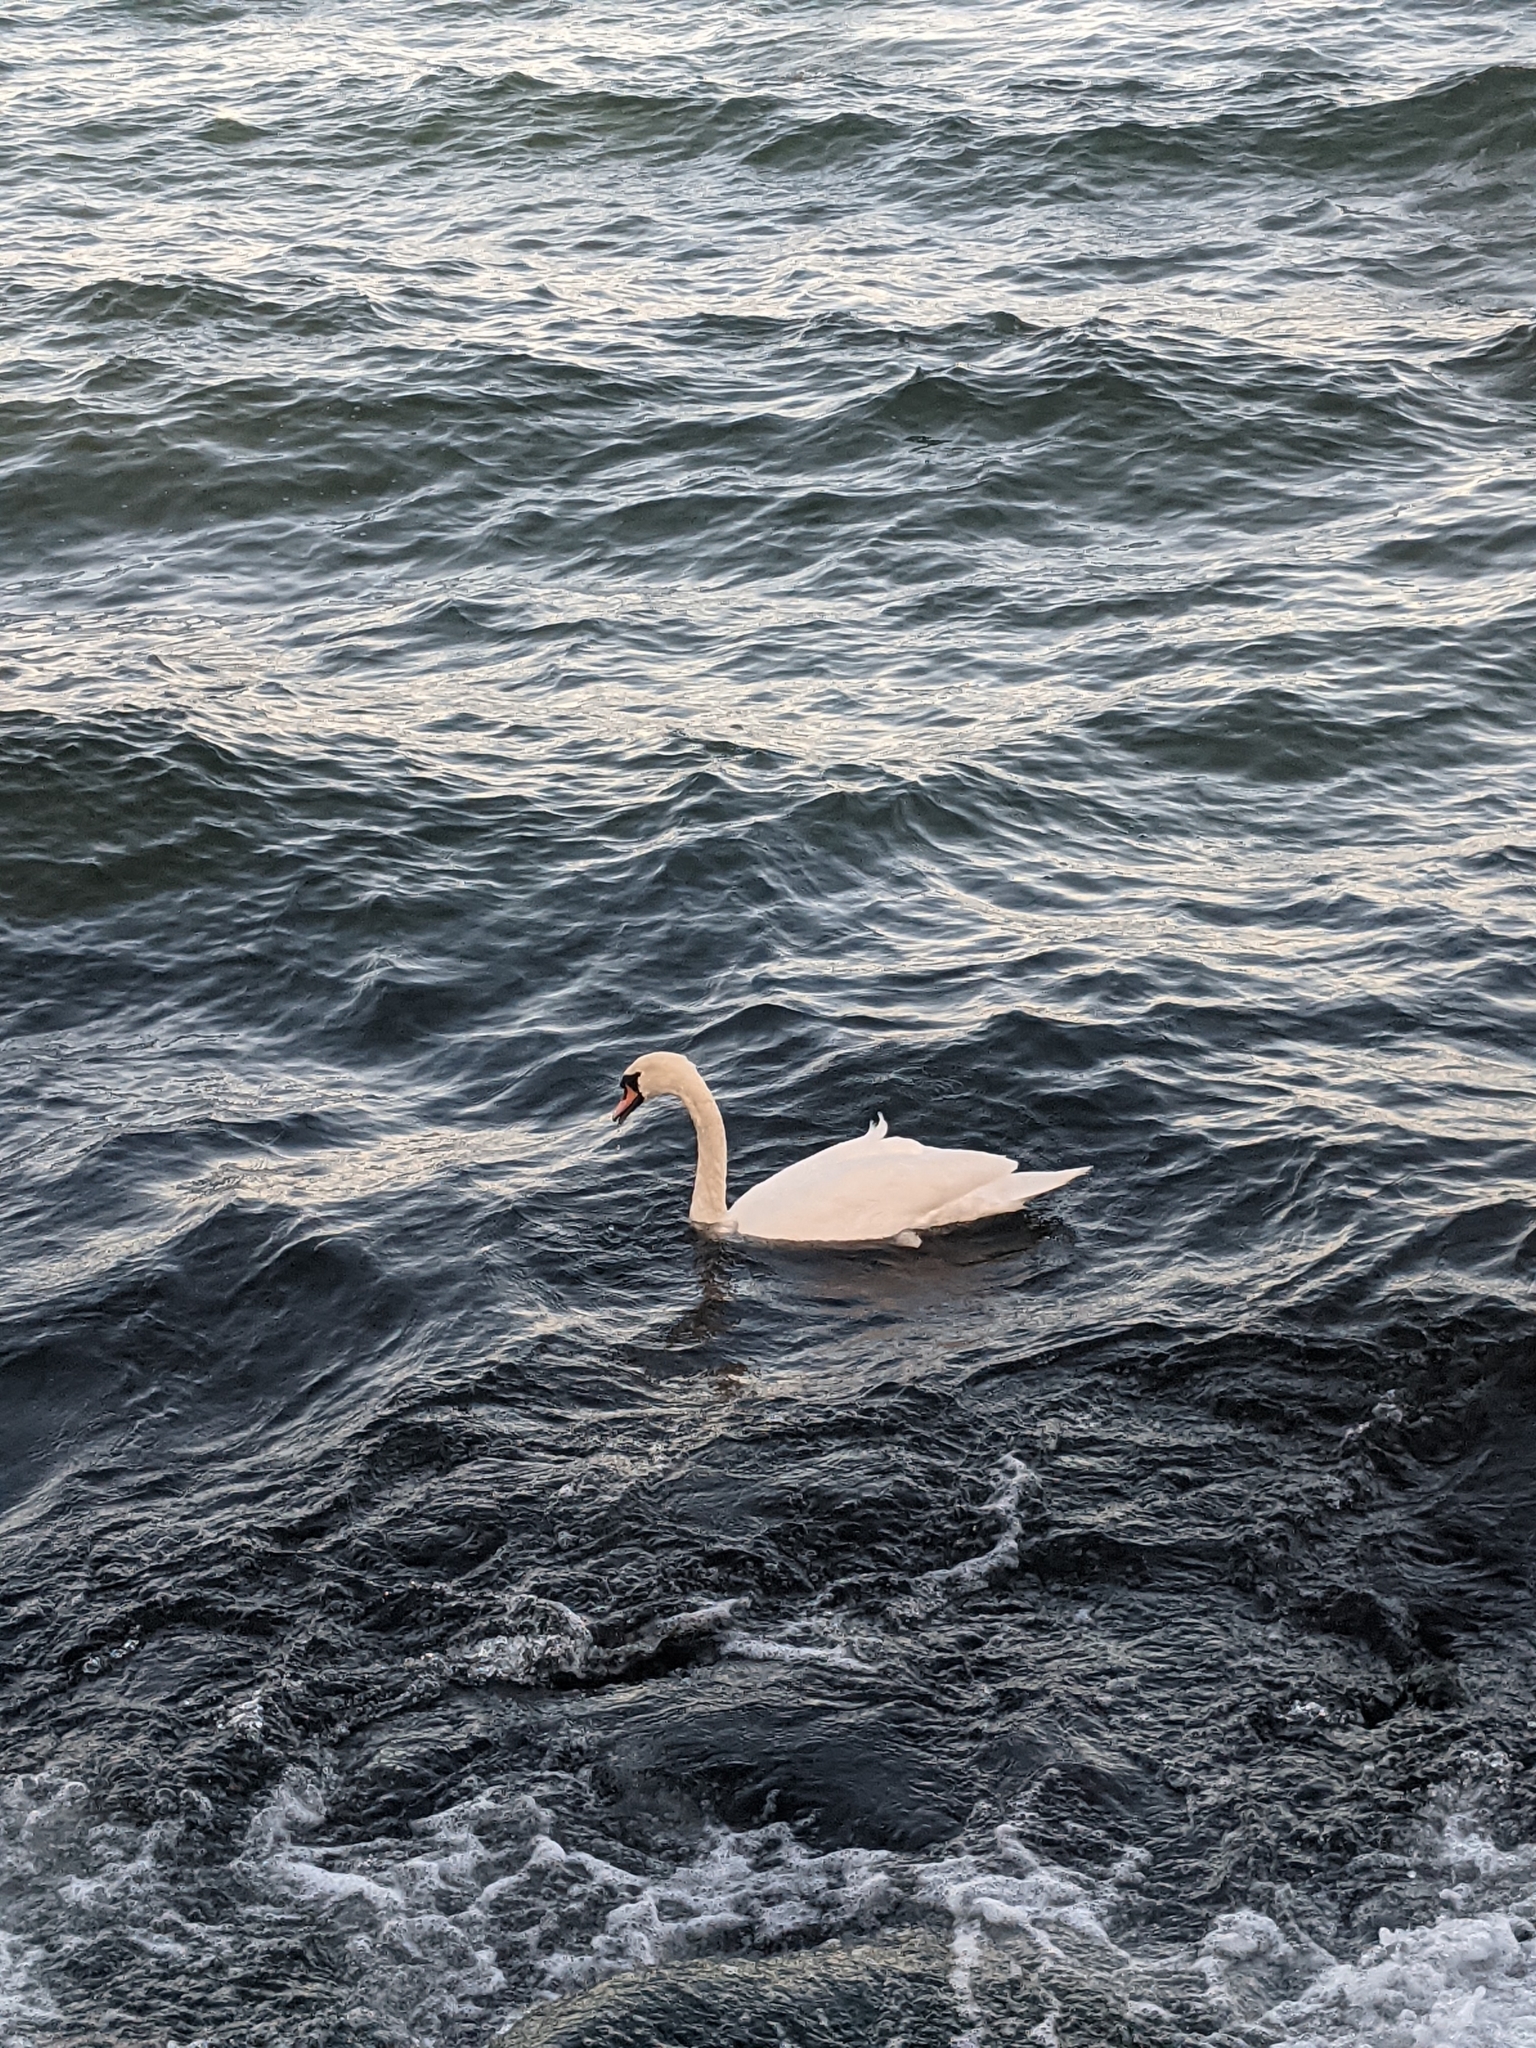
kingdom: Animalia
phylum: Chordata
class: Aves
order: Anseriformes
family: Anatidae
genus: Cygnus
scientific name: Cygnus olor
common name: Mute swan
